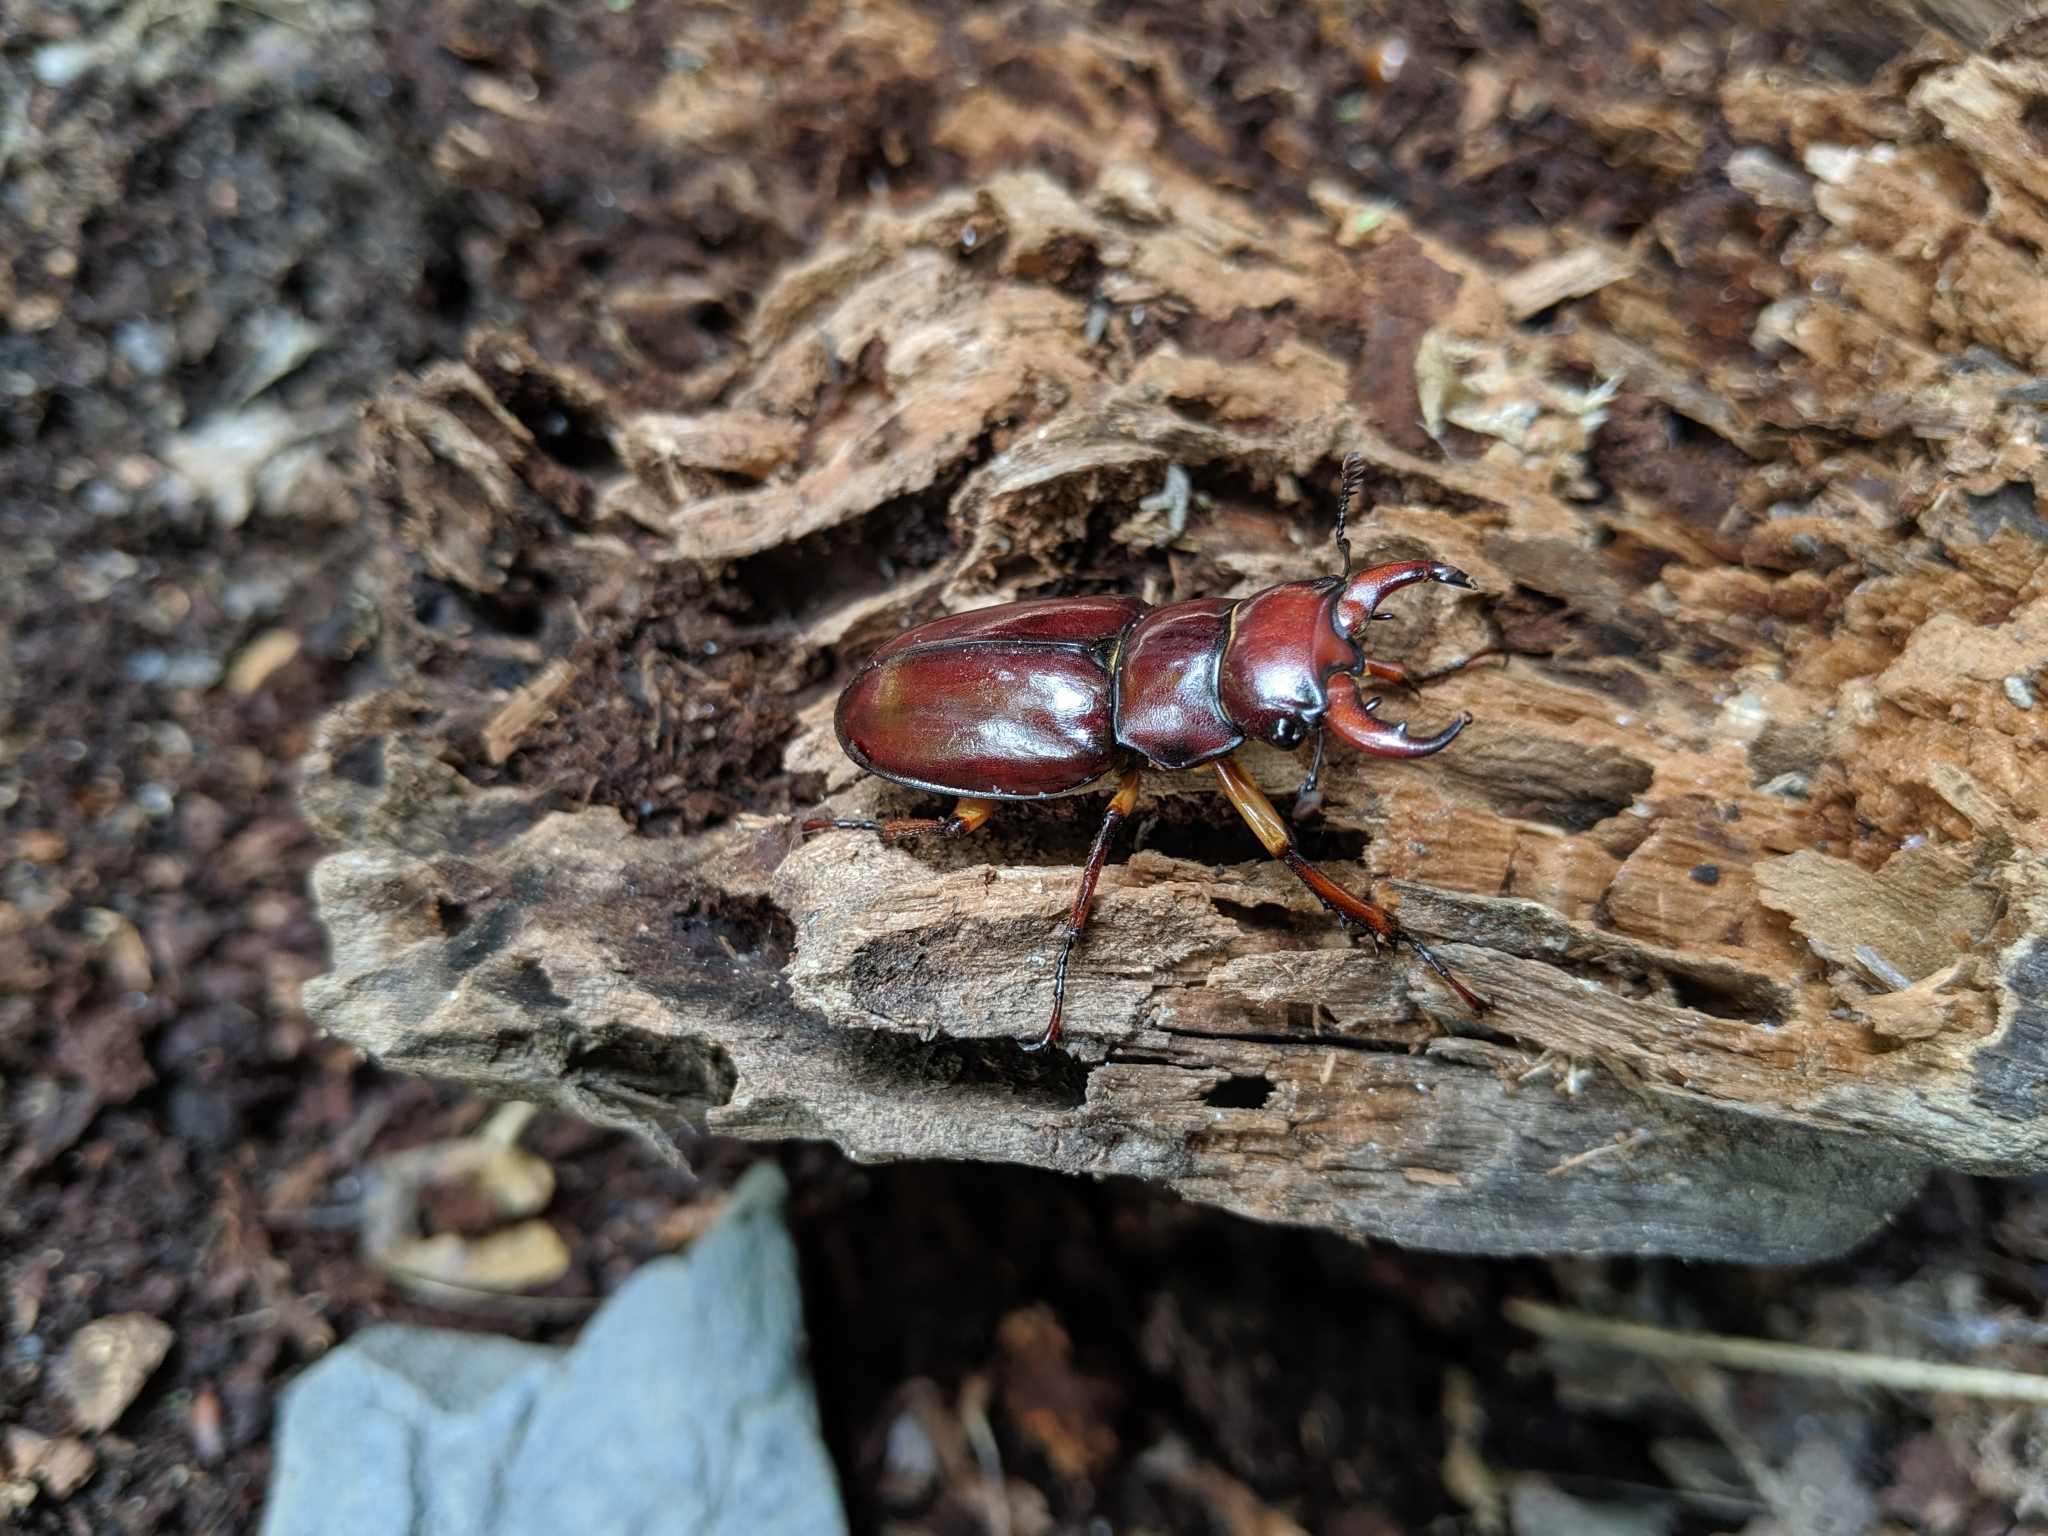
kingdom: Animalia
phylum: Arthropoda
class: Insecta
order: Coleoptera
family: Lucanidae
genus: Lucanus
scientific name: Lucanus capreolus
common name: Stag beetle
